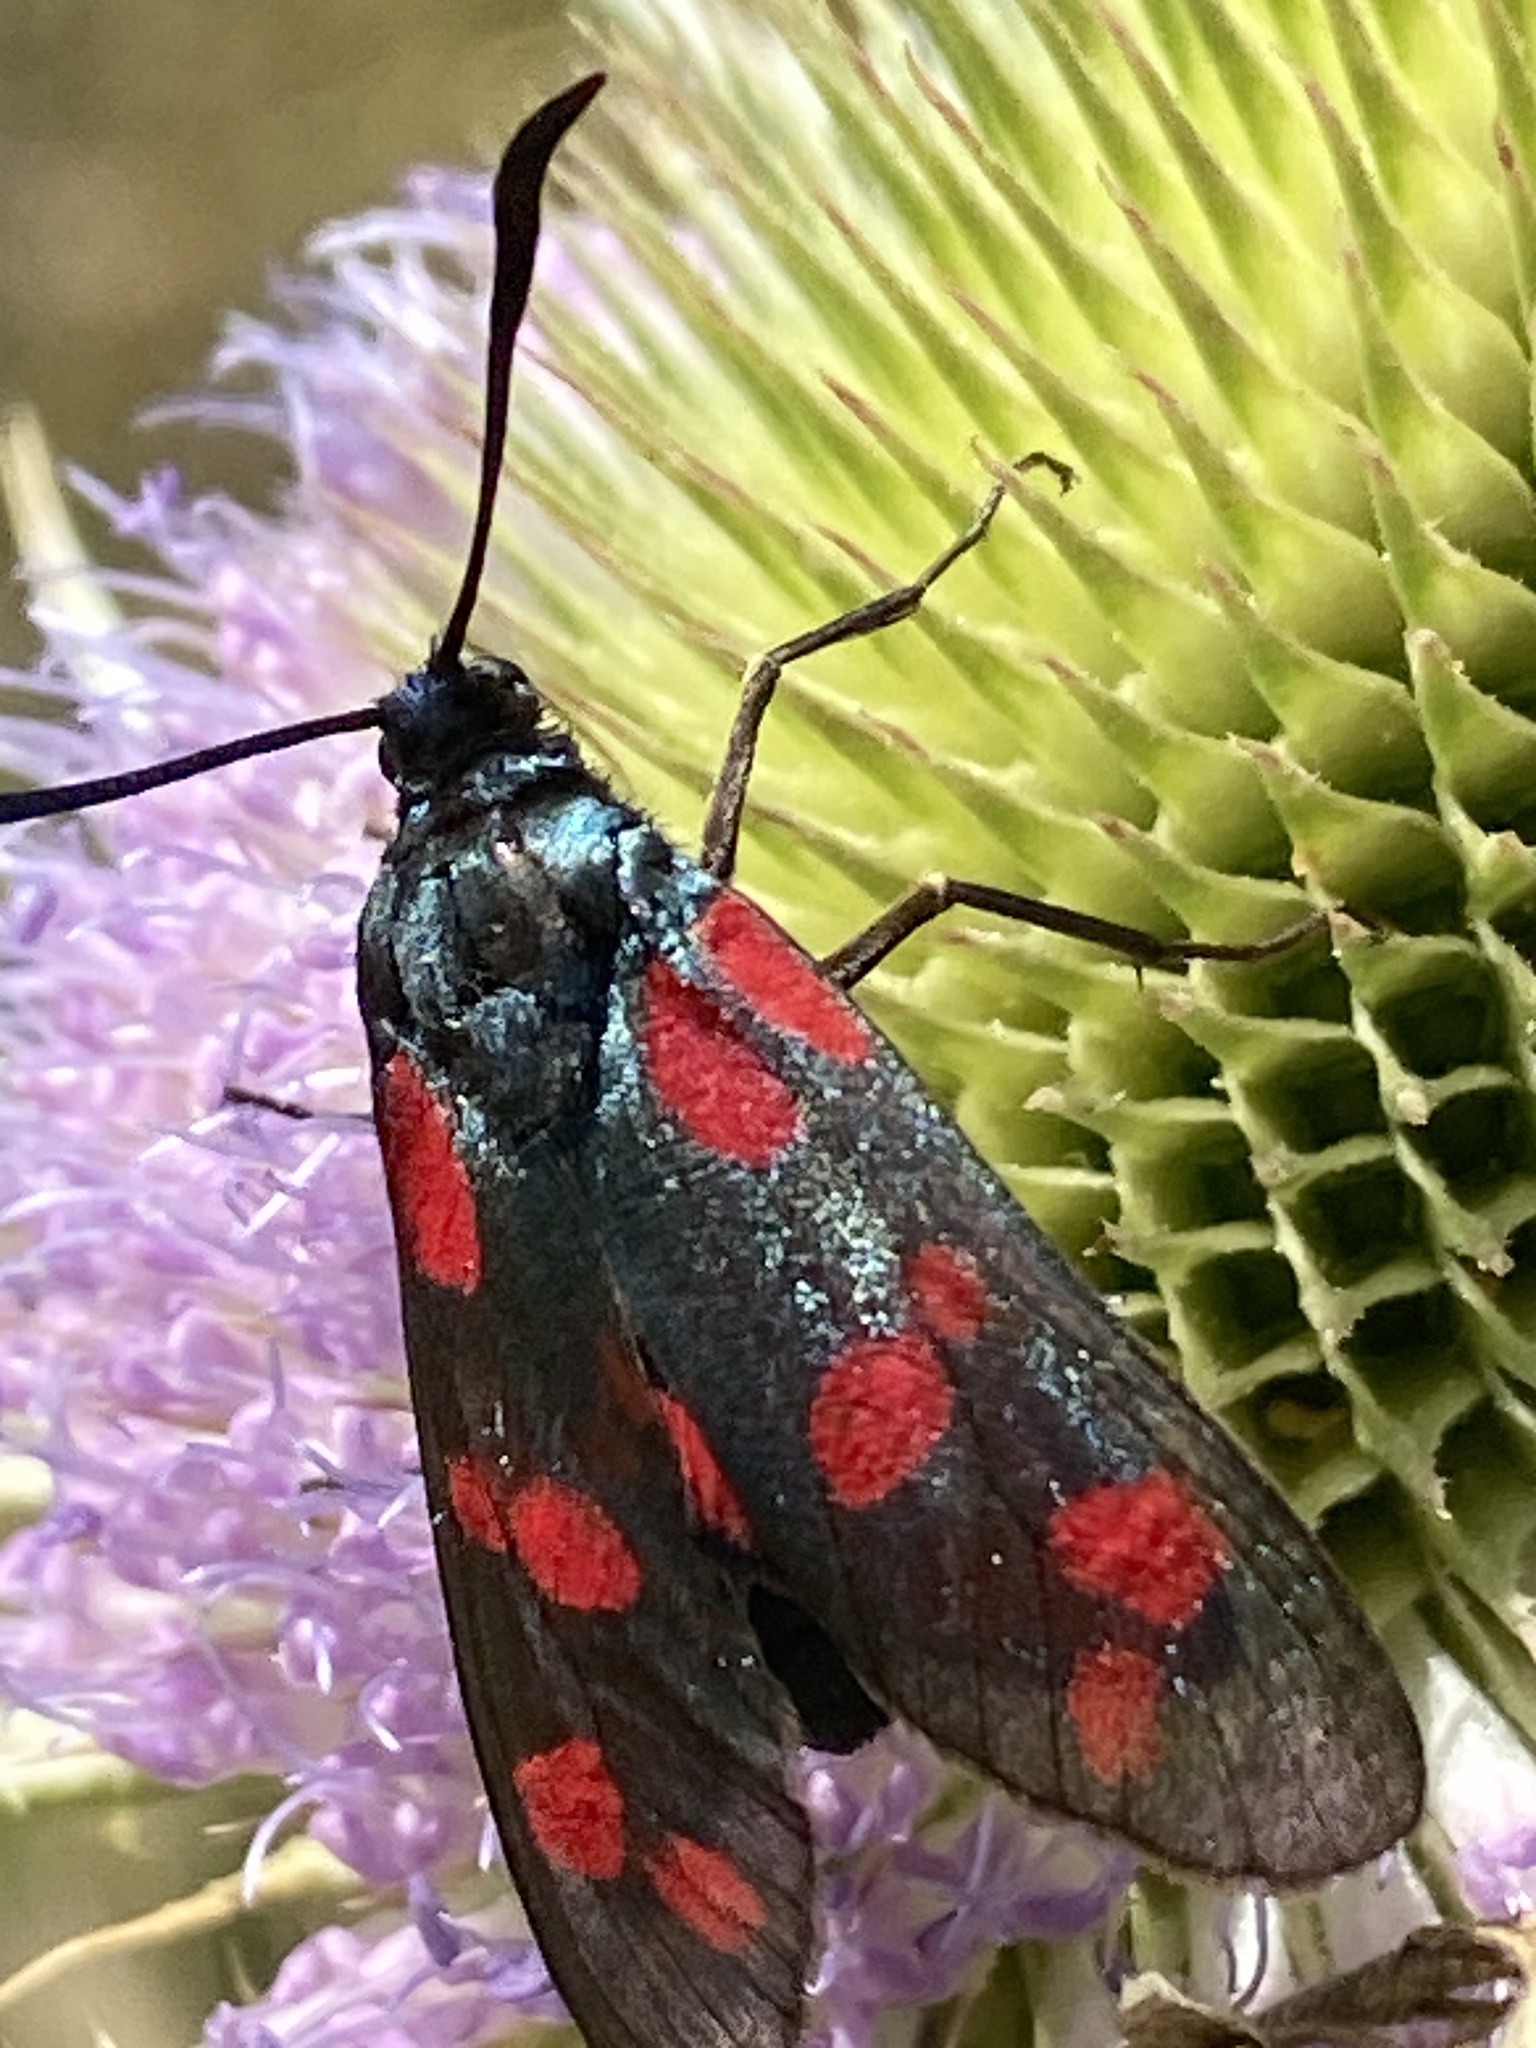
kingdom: Animalia
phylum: Arthropoda
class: Insecta
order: Lepidoptera
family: Zygaenidae
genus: Zygaena
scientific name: Zygaena filipendulae
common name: Six-spot burnet
